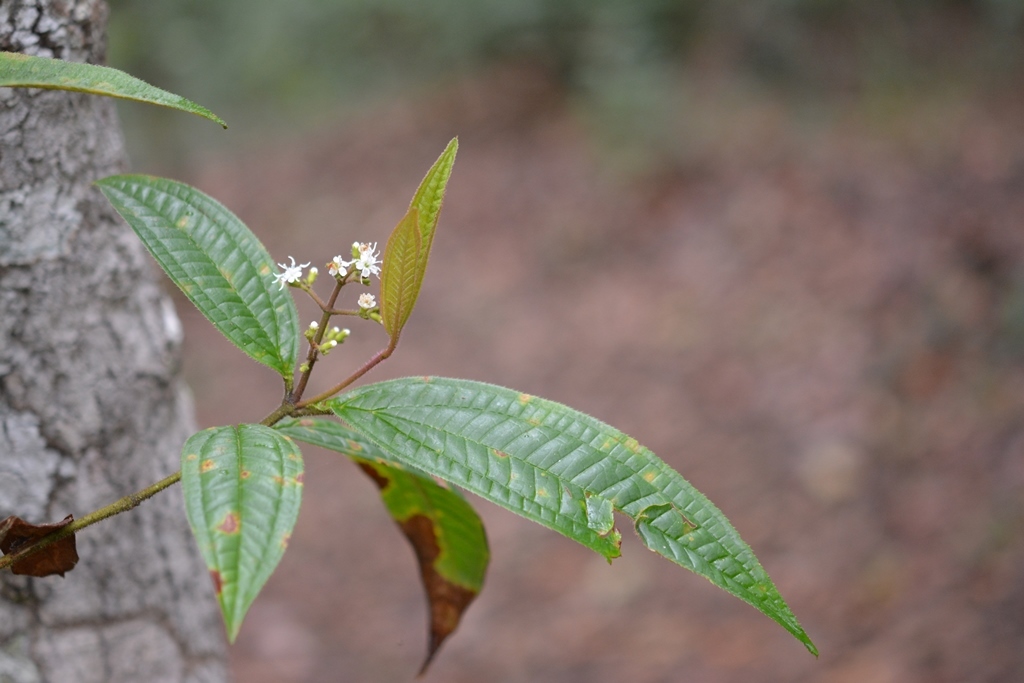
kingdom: Plantae
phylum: Tracheophyta
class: Magnoliopsida
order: Myrtales
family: Melastomataceae
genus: Miconia
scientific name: Miconia mexicana
